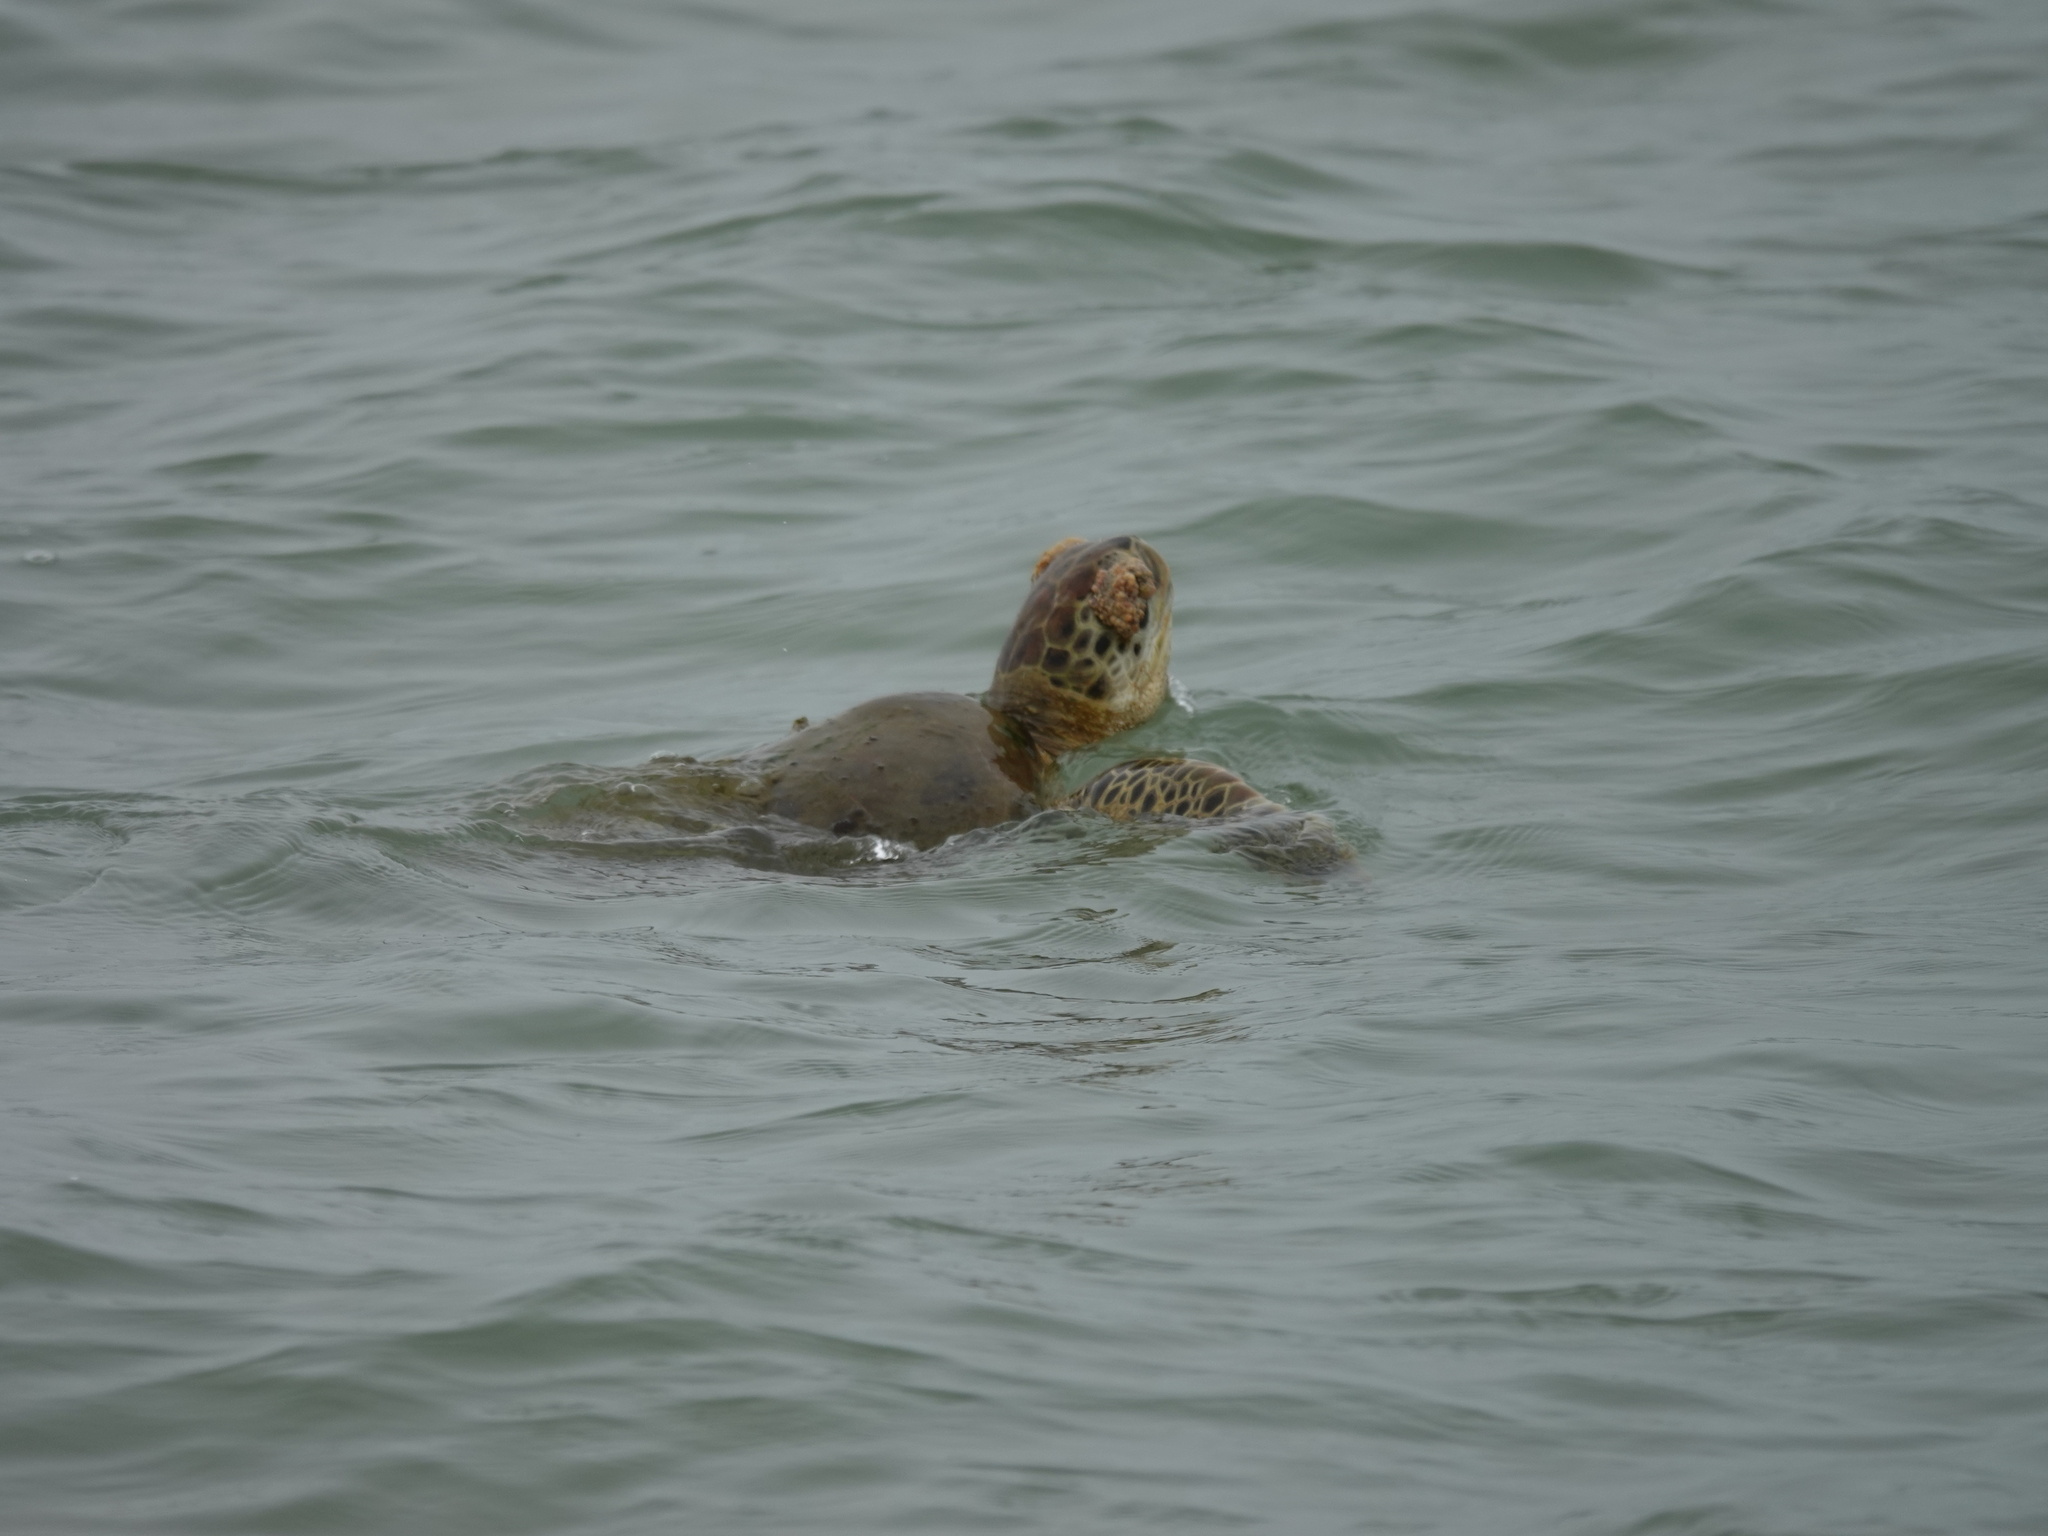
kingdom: Animalia
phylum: Chordata
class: Testudines
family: Cheloniidae
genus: Chelonia
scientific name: Chelonia mydas
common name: Green turtle
